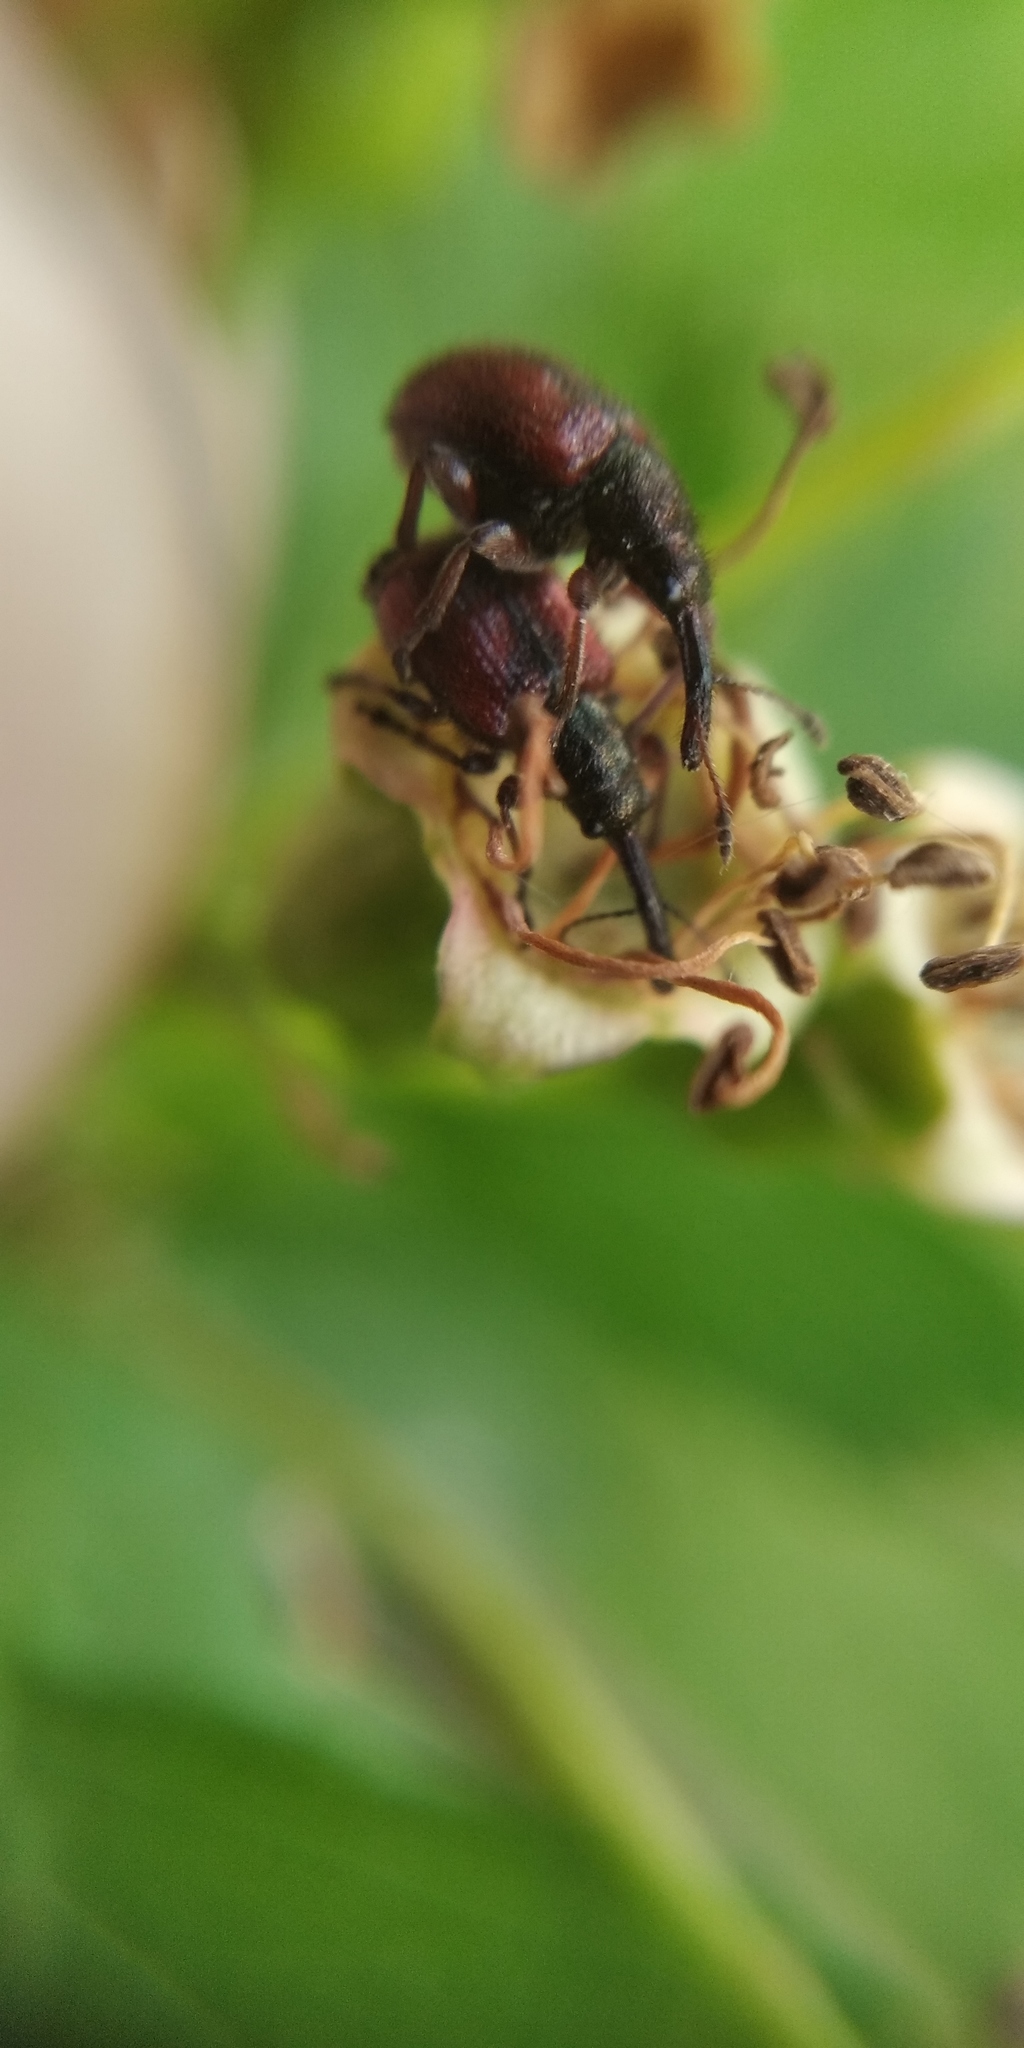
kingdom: Animalia
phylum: Arthropoda
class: Insecta
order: Coleoptera
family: Rhynchitidae
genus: Tatianaerhynchites
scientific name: Tatianaerhynchites aequatus
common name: Apple fruit rhynchites
